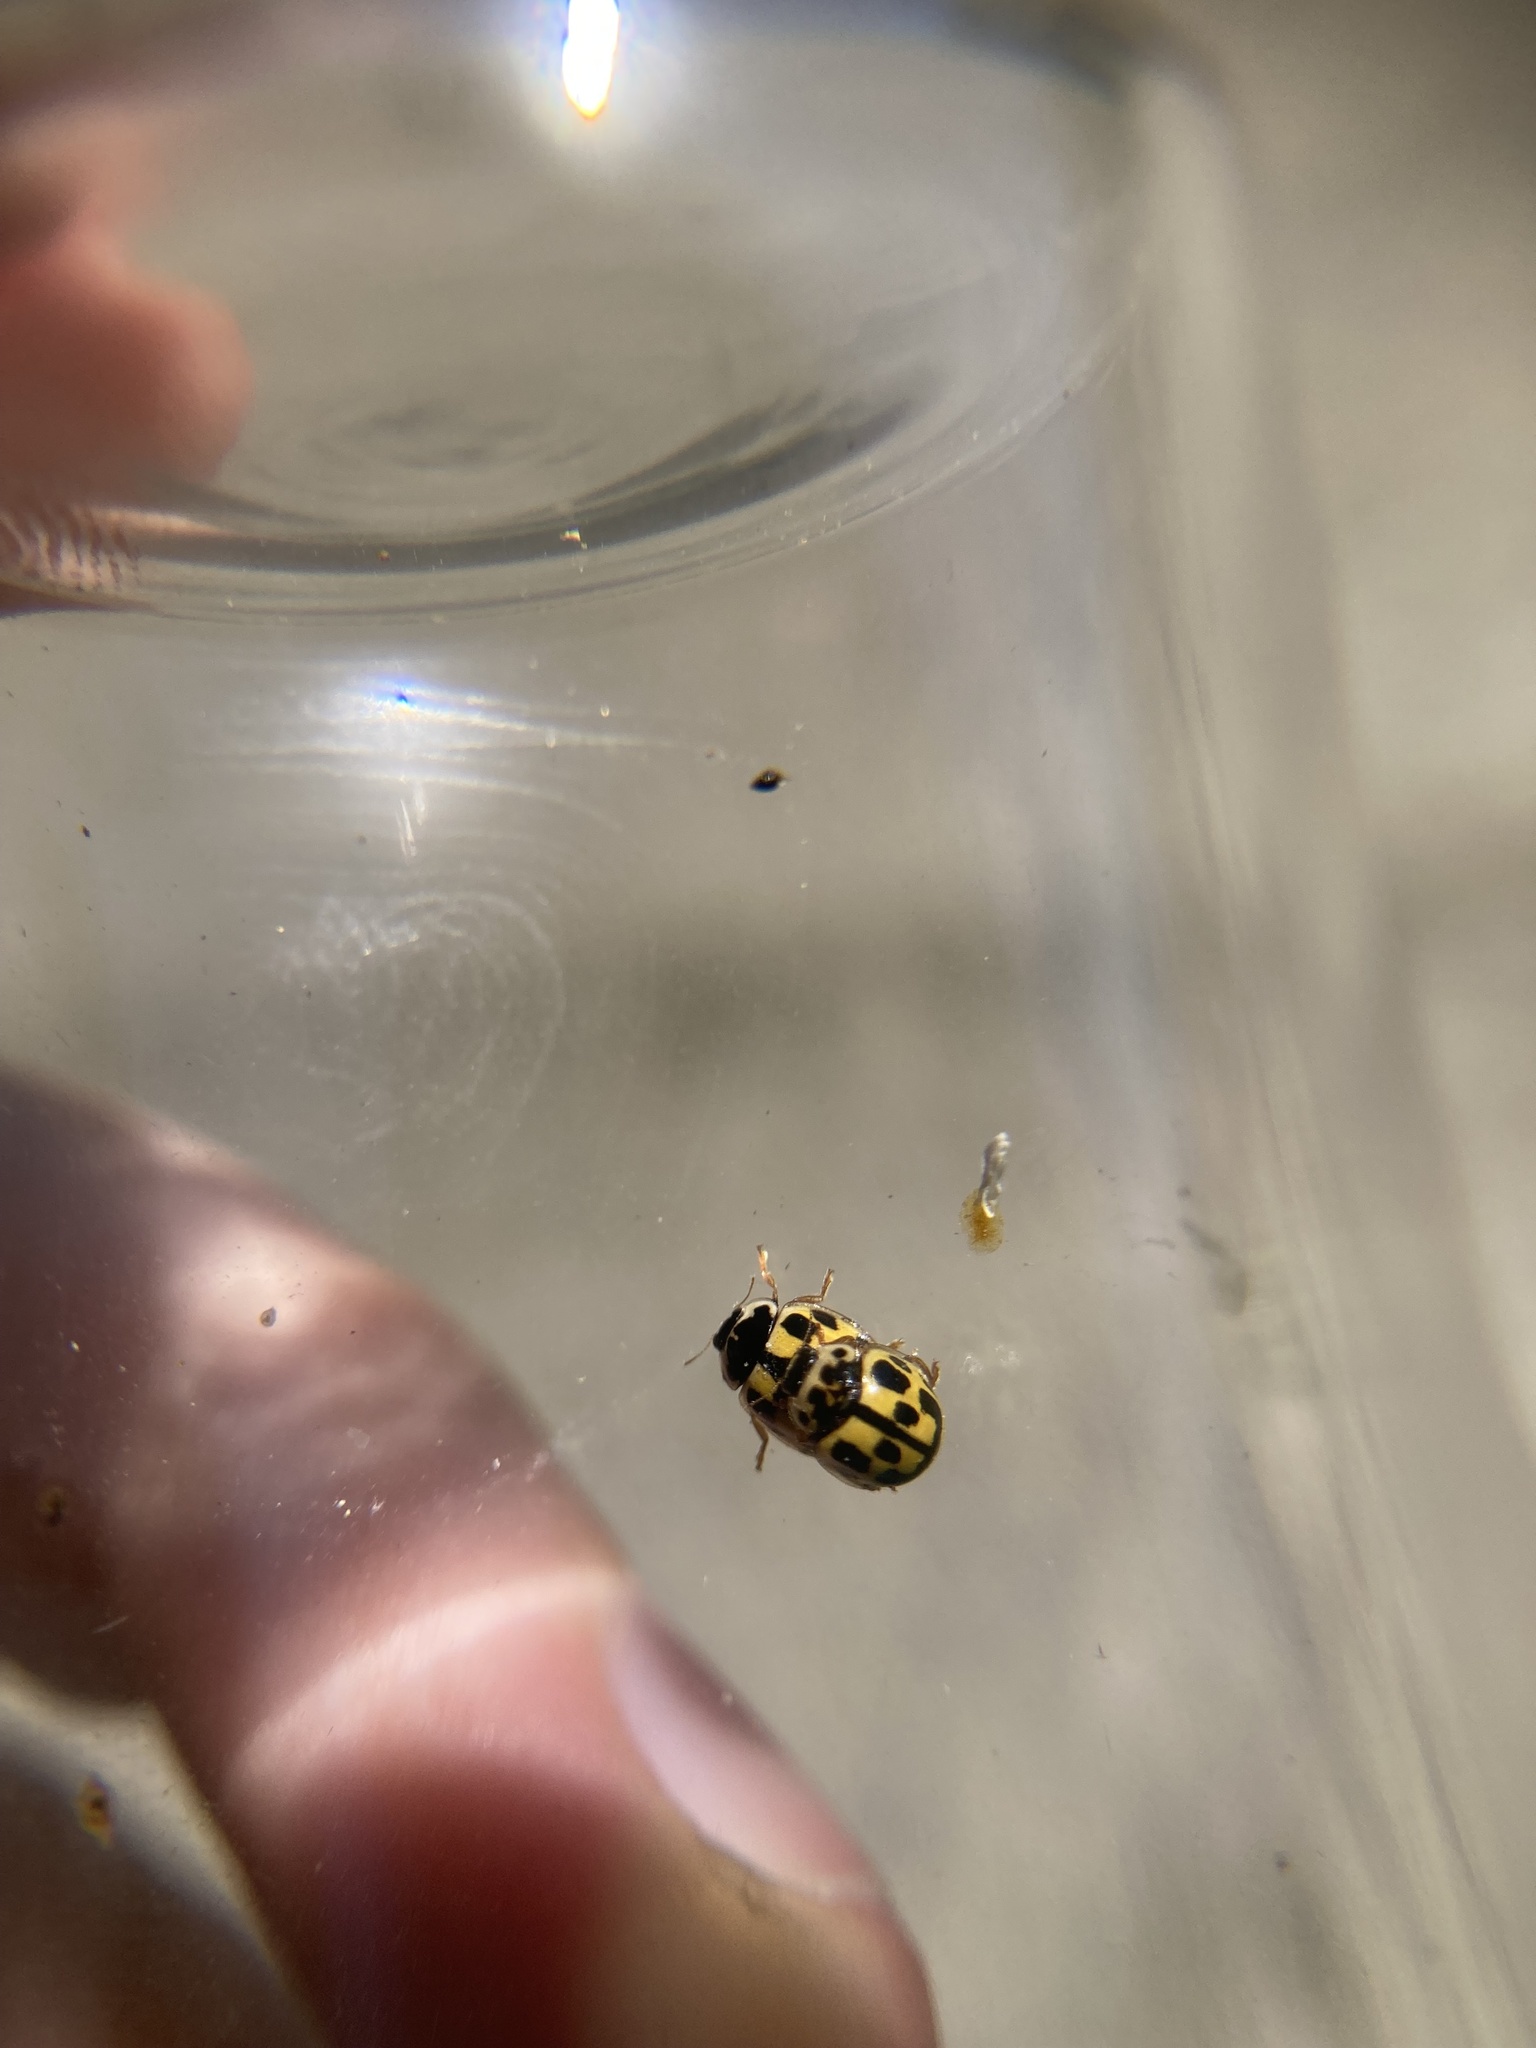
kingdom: Animalia
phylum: Arthropoda
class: Insecta
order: Coleoptera
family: Coccinellidae
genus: Propylaea
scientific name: Propylaea quatuordecimpunctata
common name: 14-spotted ladybird beetle
